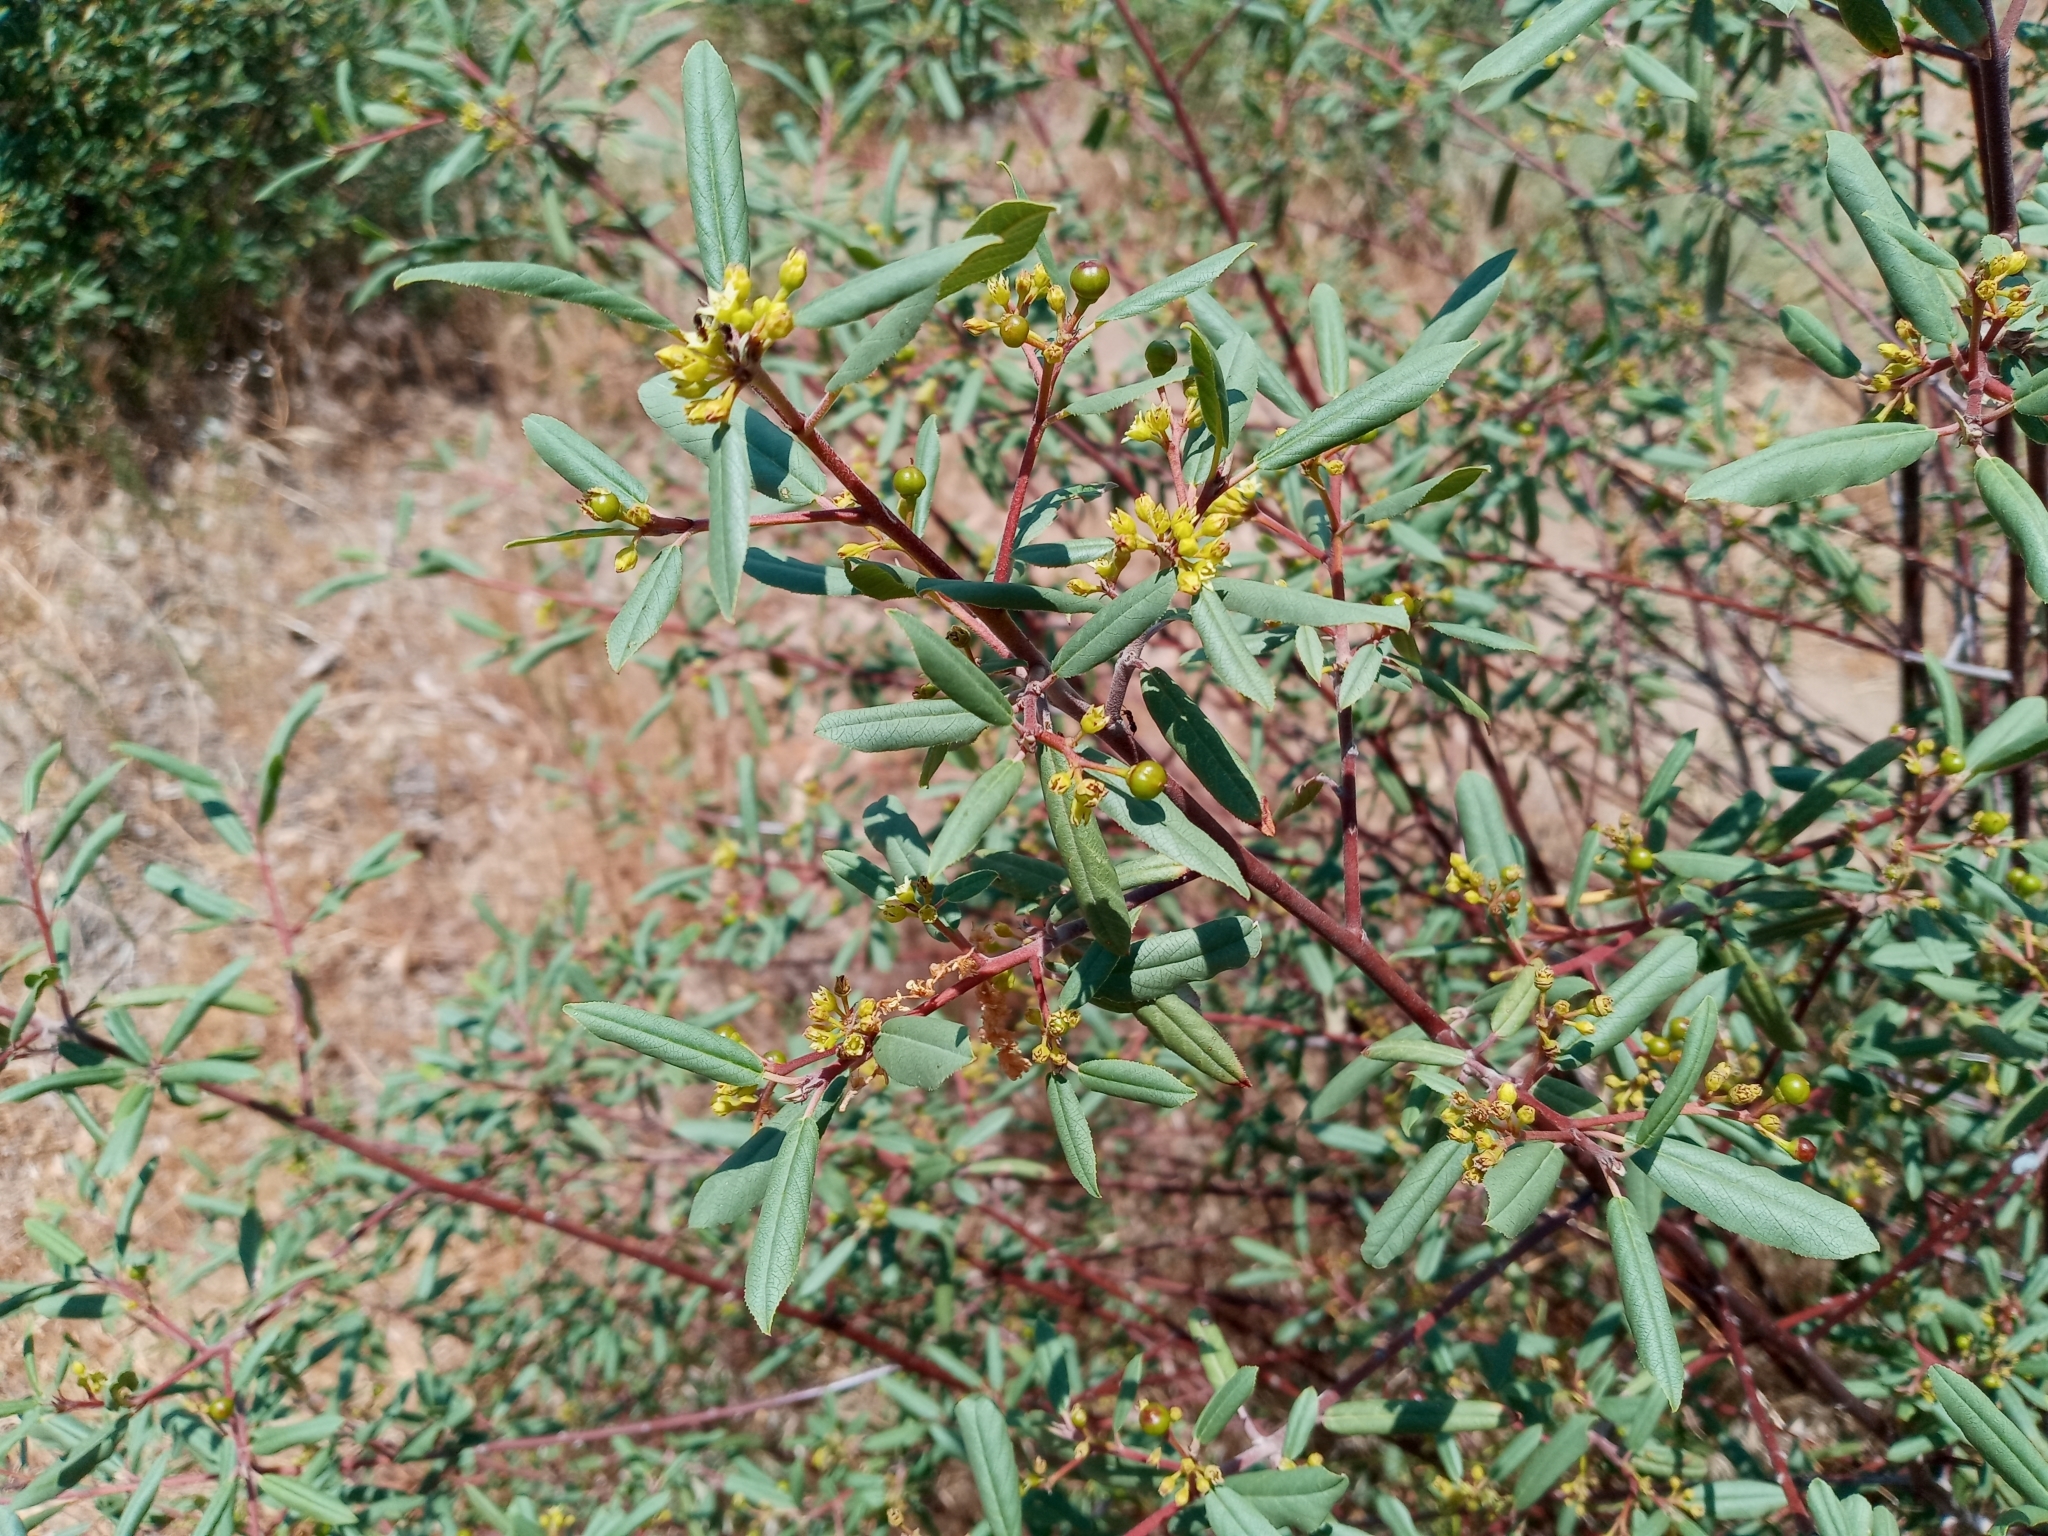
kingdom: Plantae
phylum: Tracheophyta
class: Magnoliopsida
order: Rosales
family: Rhamnaceae
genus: Frangula
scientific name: Frangula californica
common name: California buckthorn
